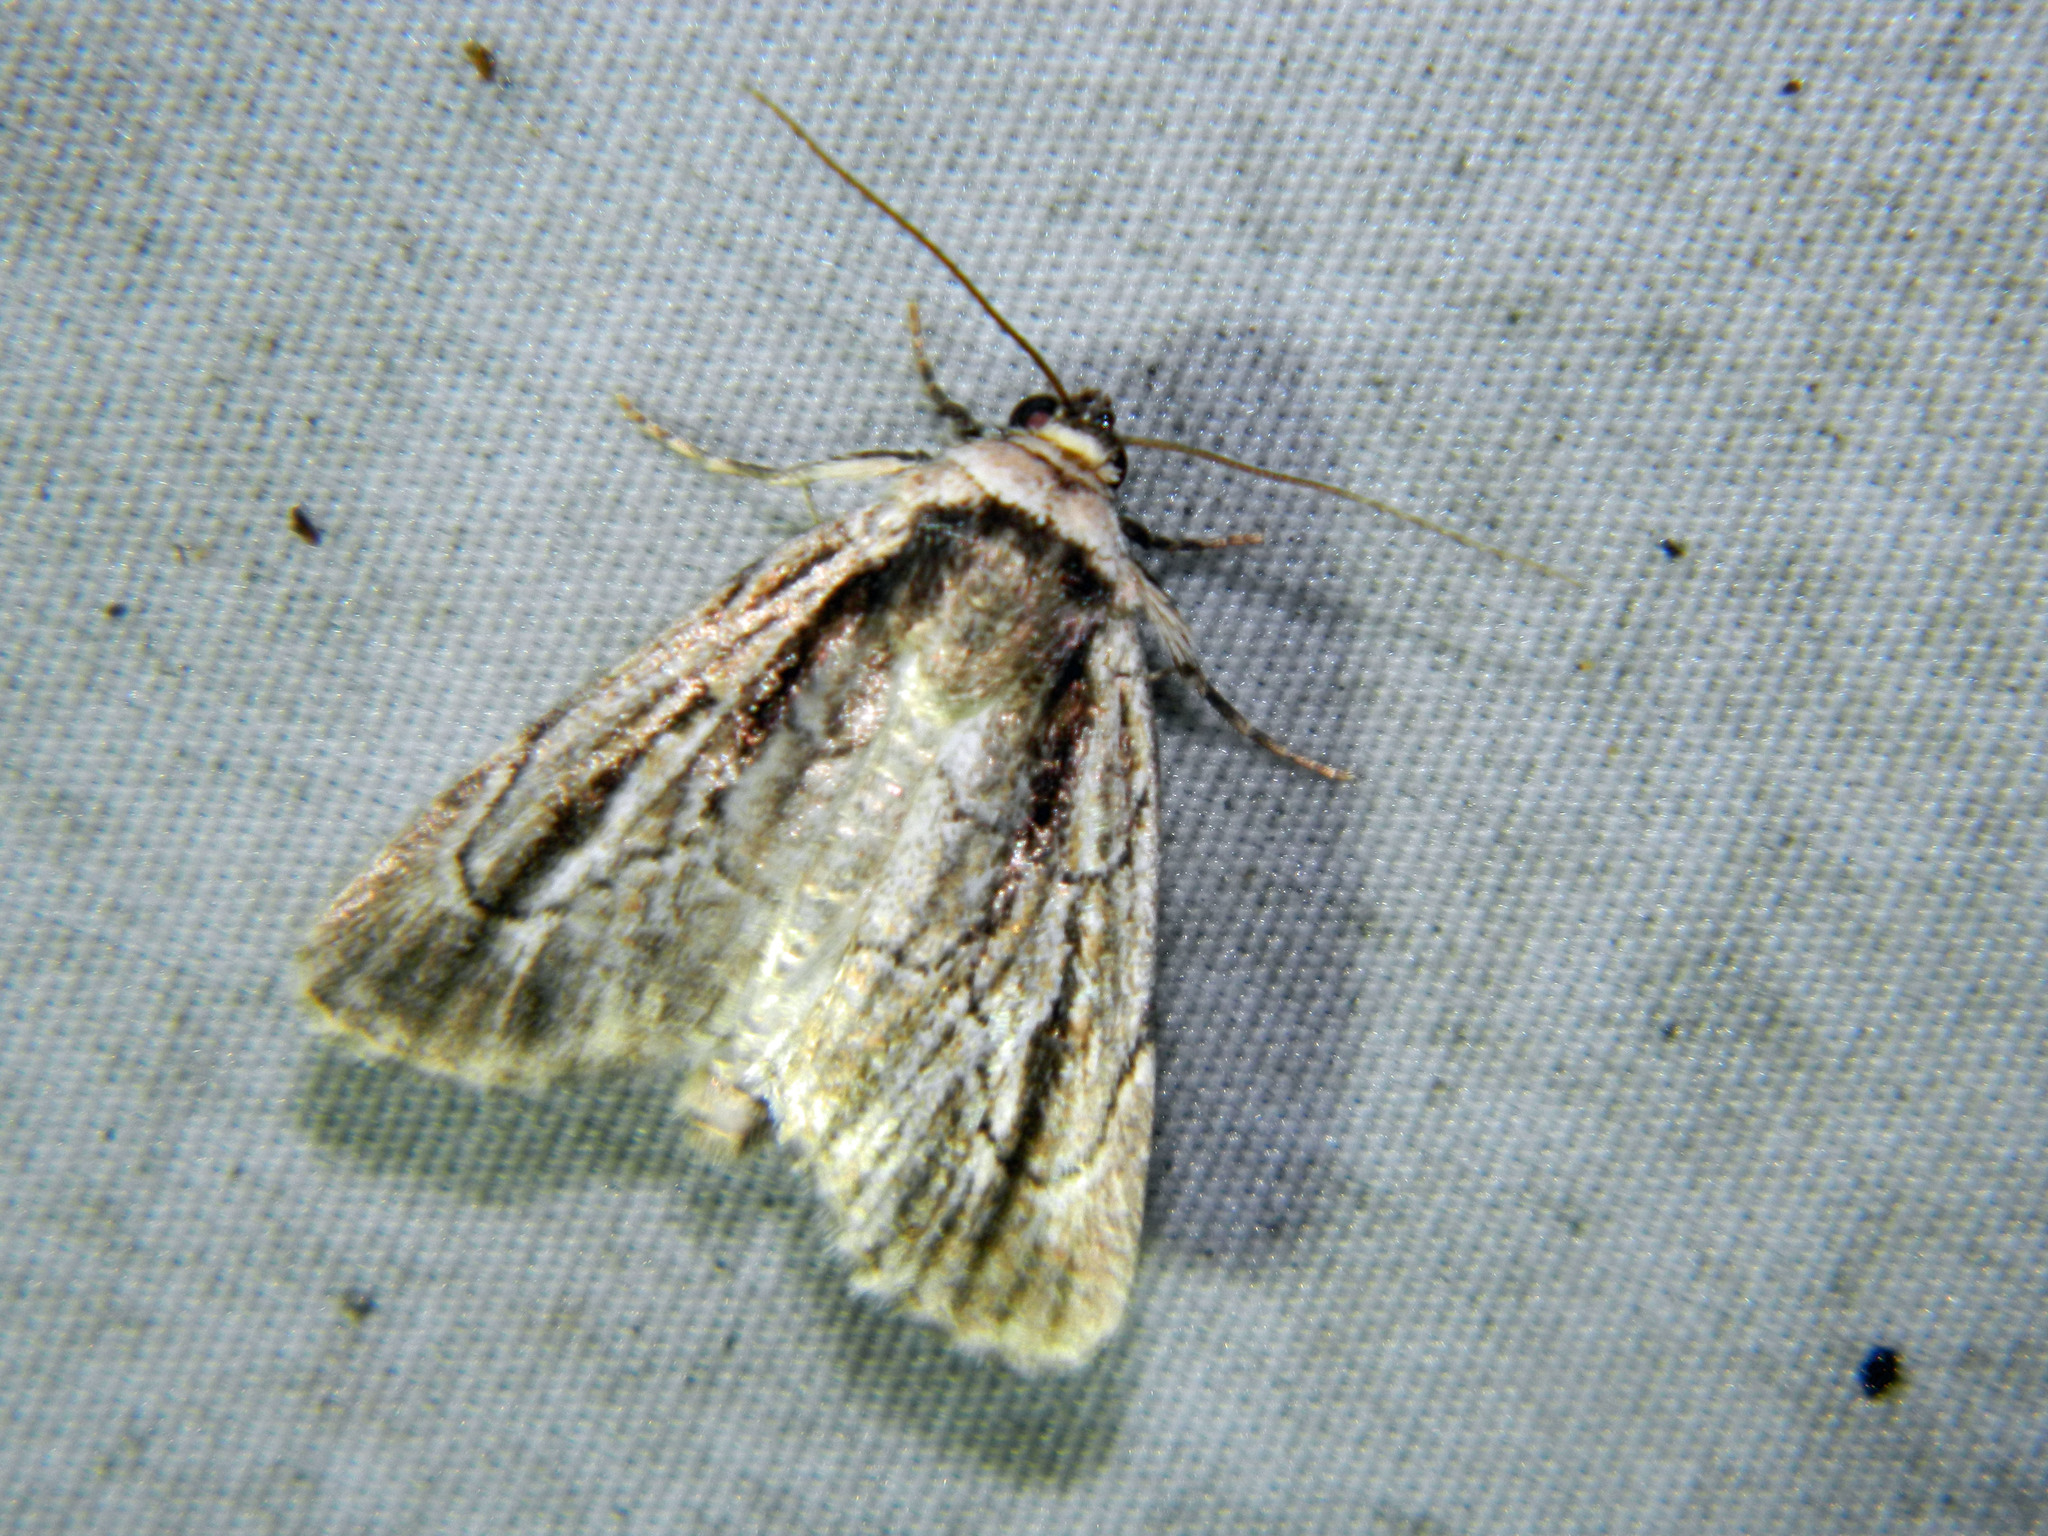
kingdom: Animalia
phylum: Arthropoda
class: Insecta
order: Lepidoptera
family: Noctuidae
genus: Sympistis
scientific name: Sympistis badistriga
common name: Brown-lined sallow moth
